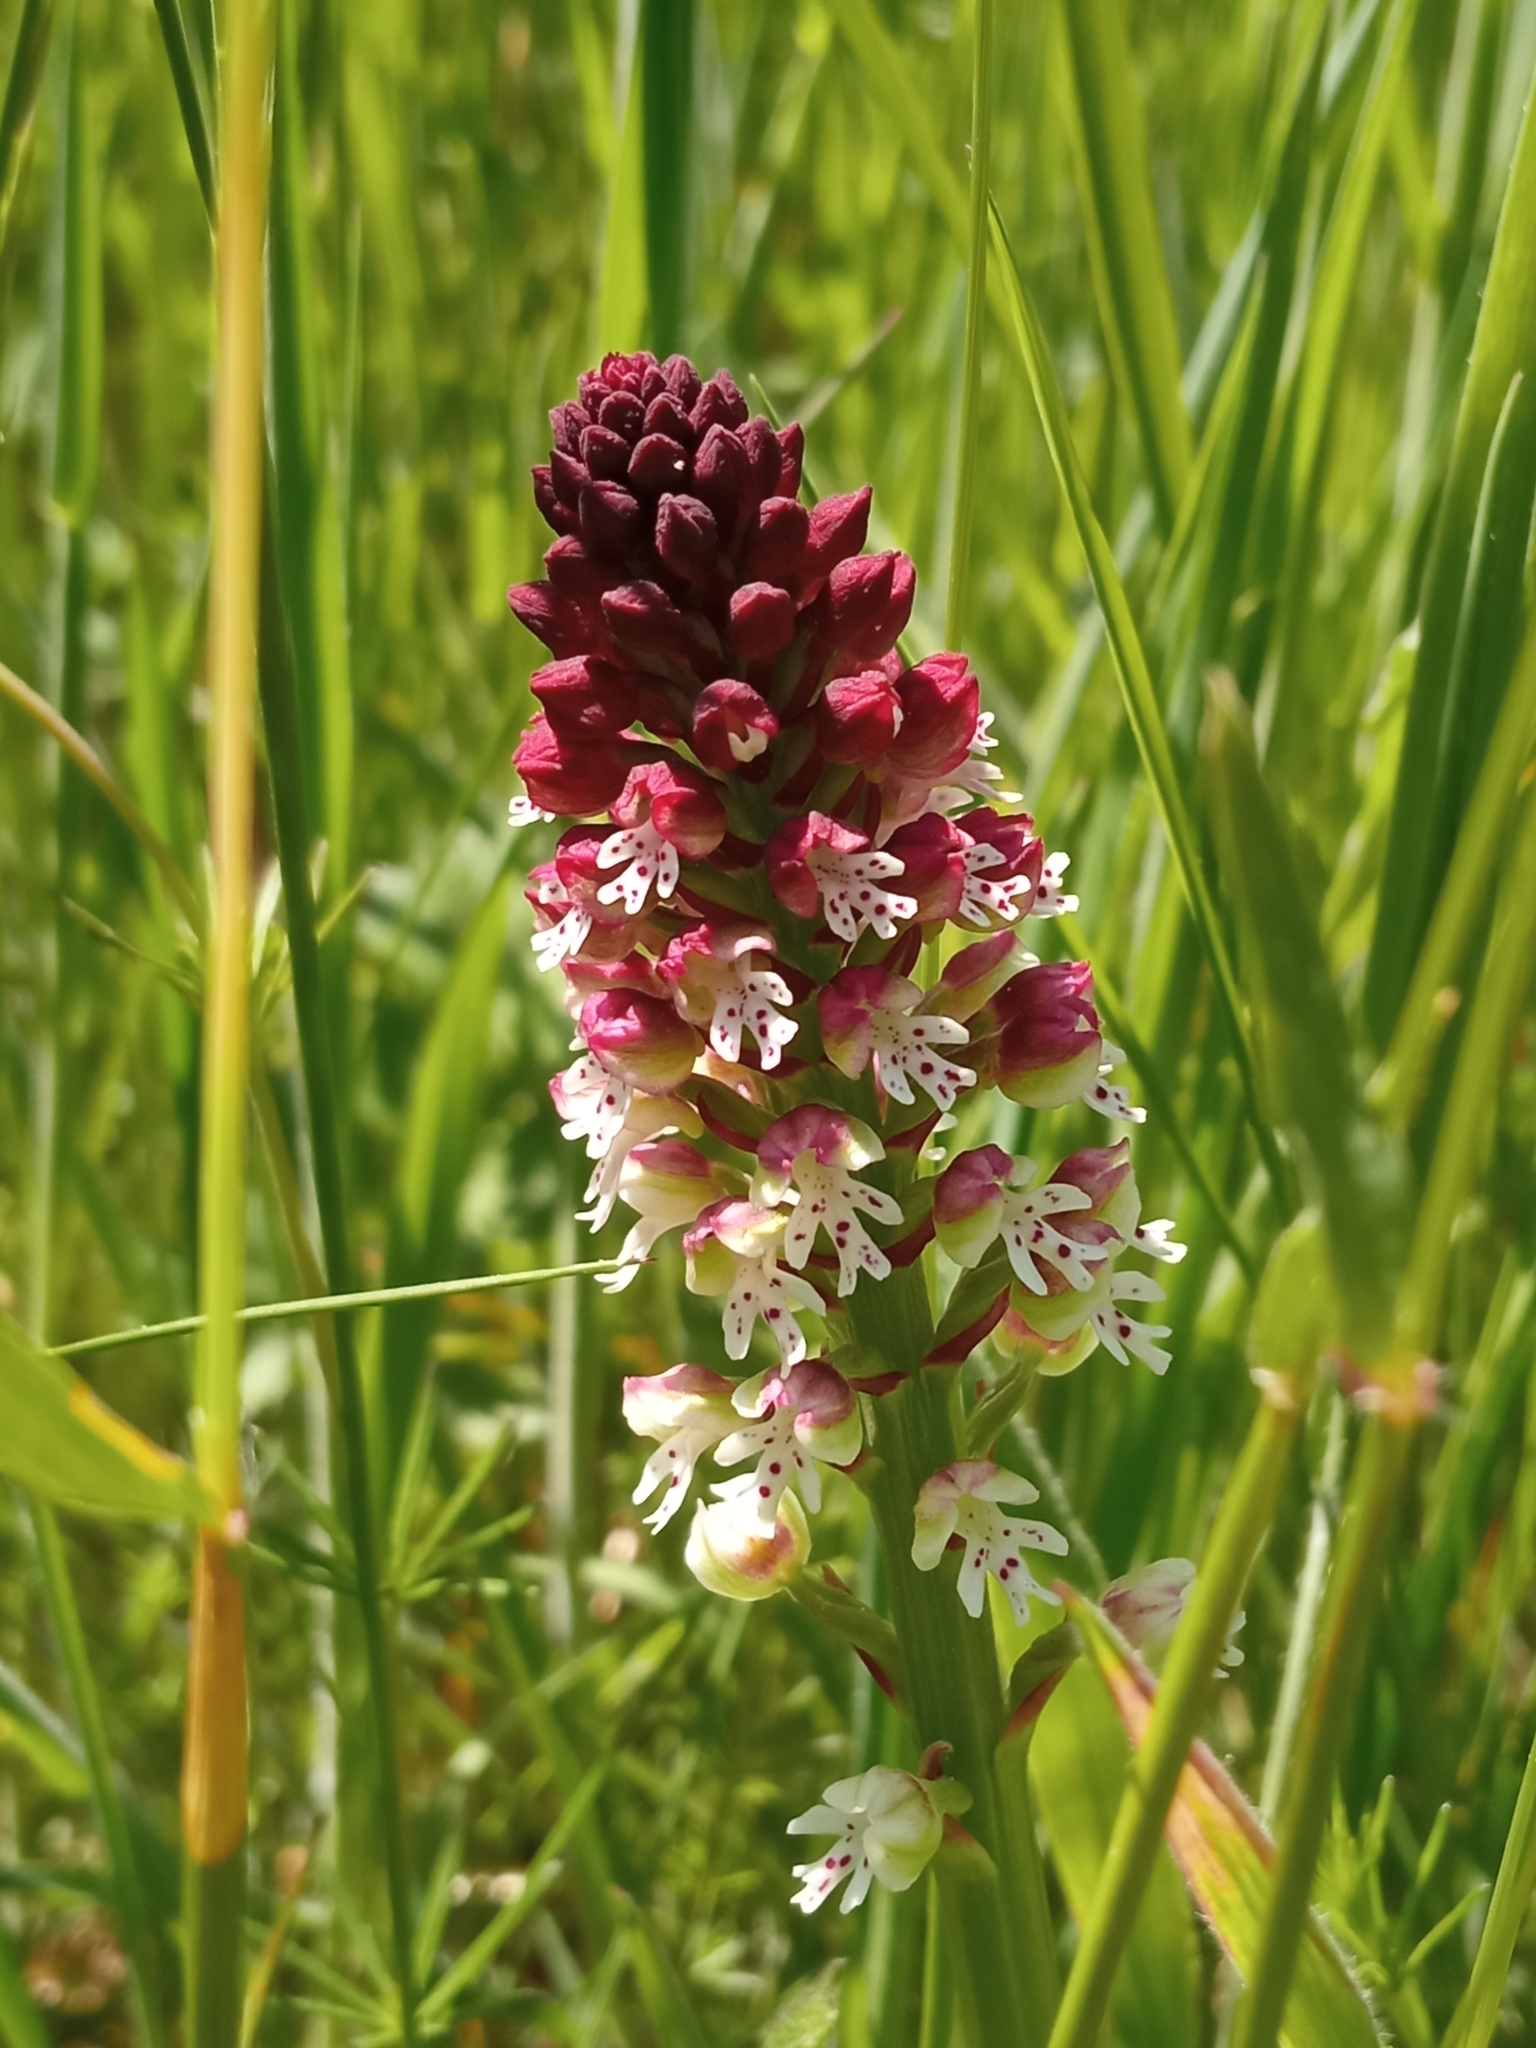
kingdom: Plantae
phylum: Tracheophyta
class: Liliopsida
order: Asparagales
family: Orchidaceae
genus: Neotinea
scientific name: Neotinea ustulata
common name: Burnt orchid
